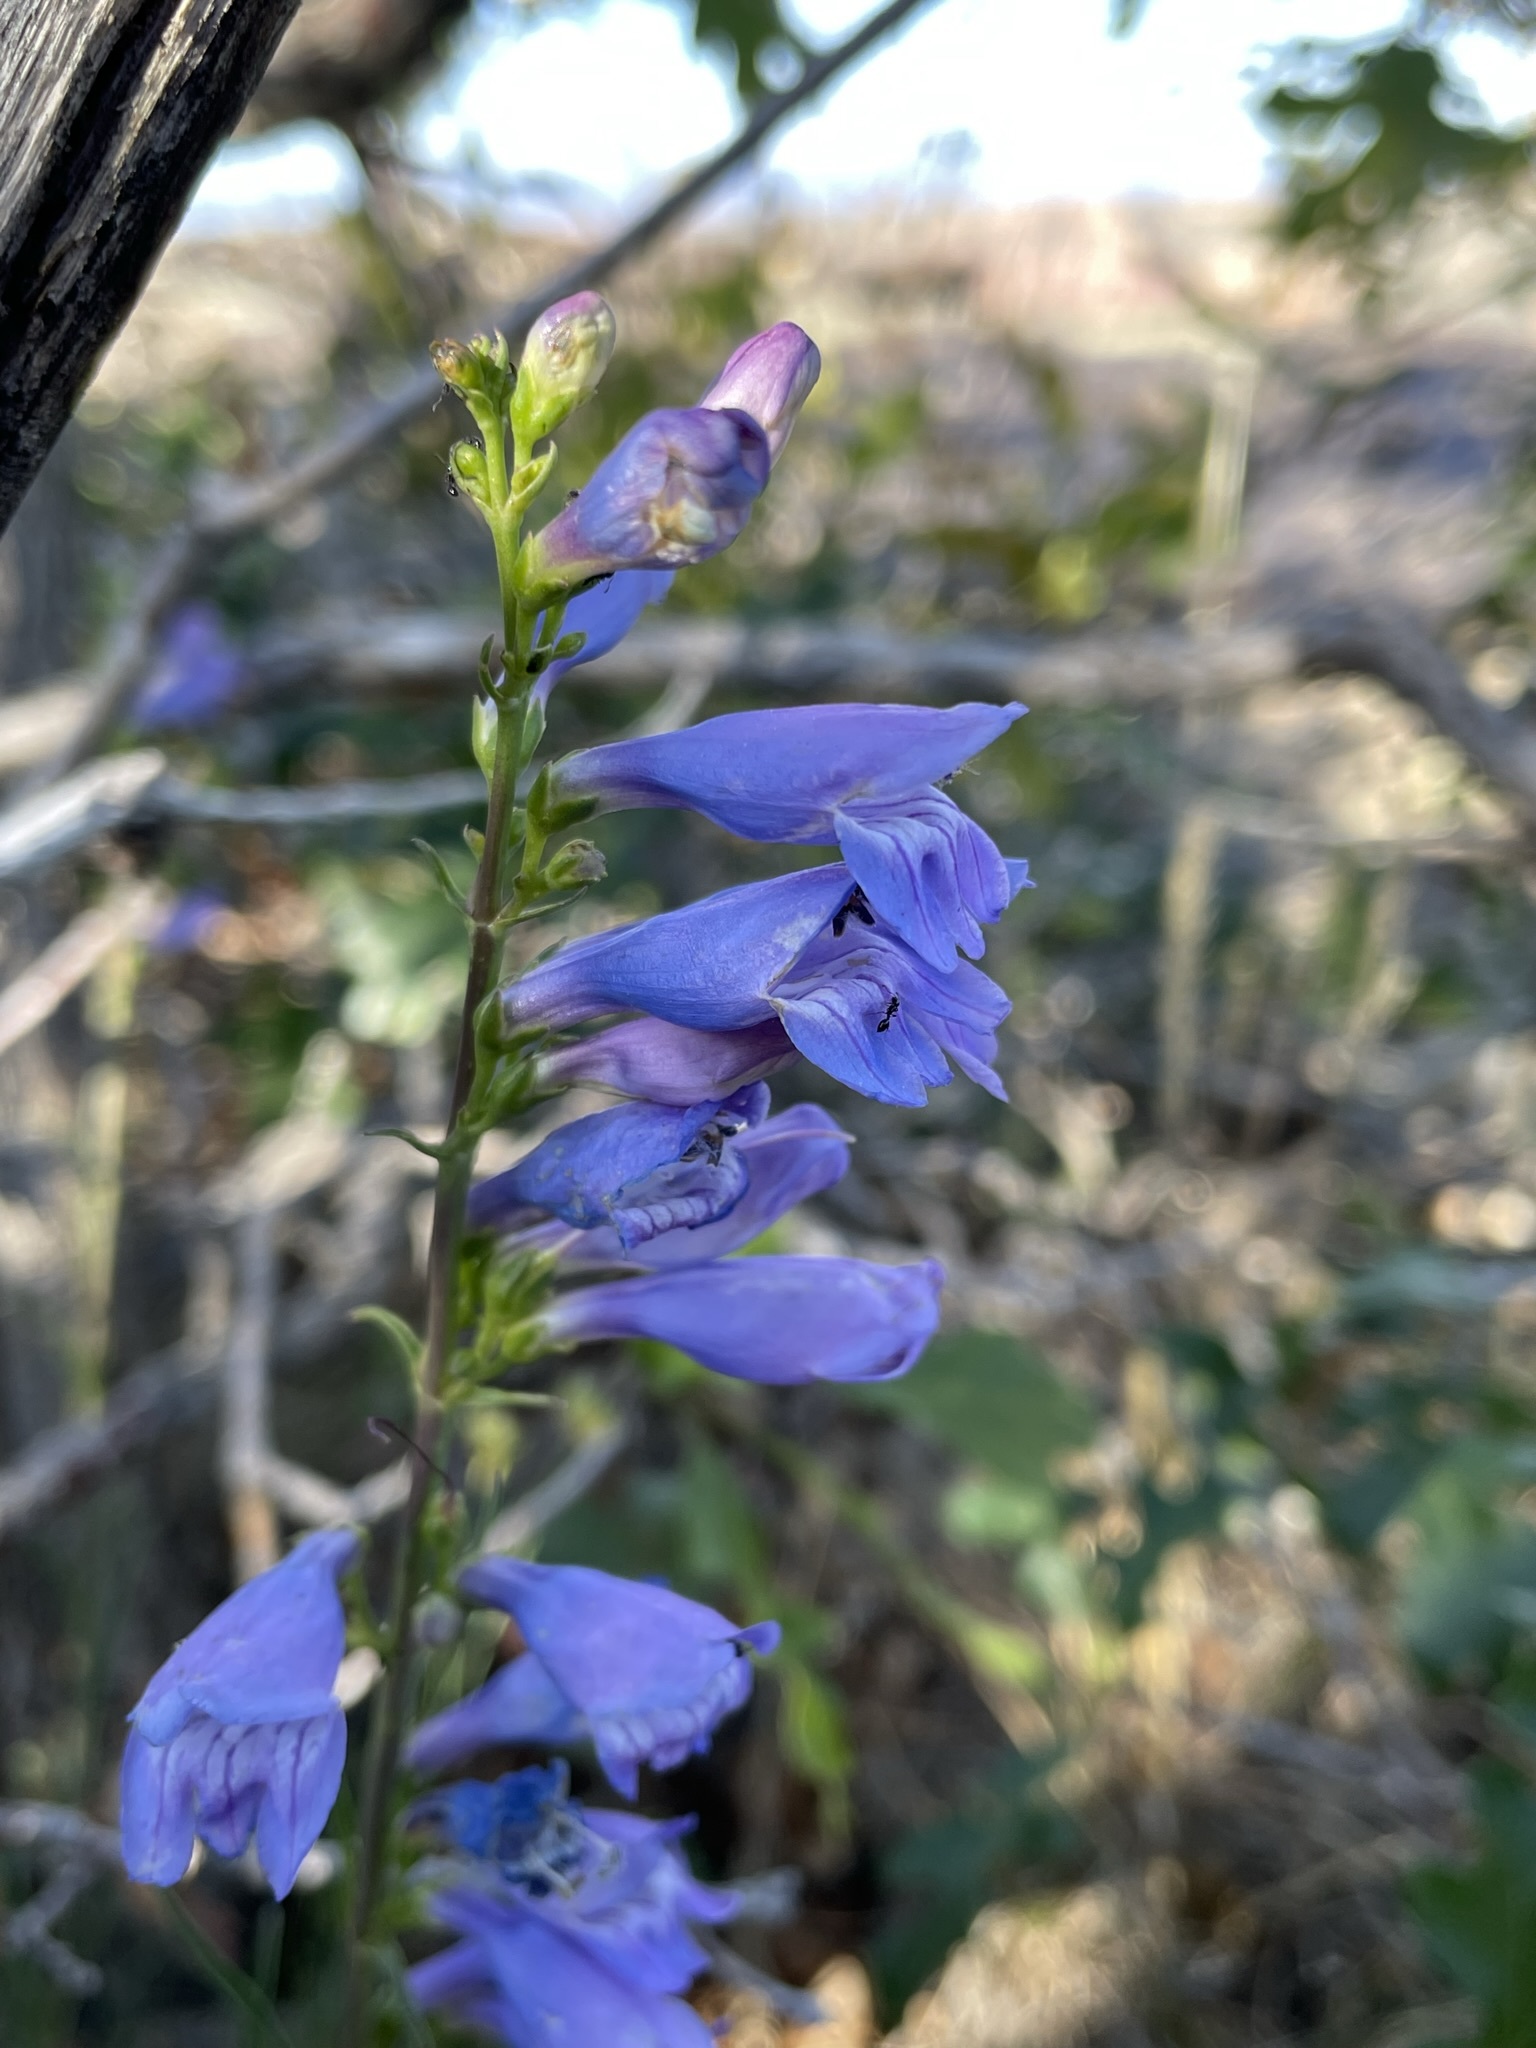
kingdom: Plantae
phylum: Tracheophyta
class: Magnoliopsida
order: Lamiales
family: Plantaginaceae
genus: Penstemon
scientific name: Penstemon strictus
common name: Rocky mountain penstemon
